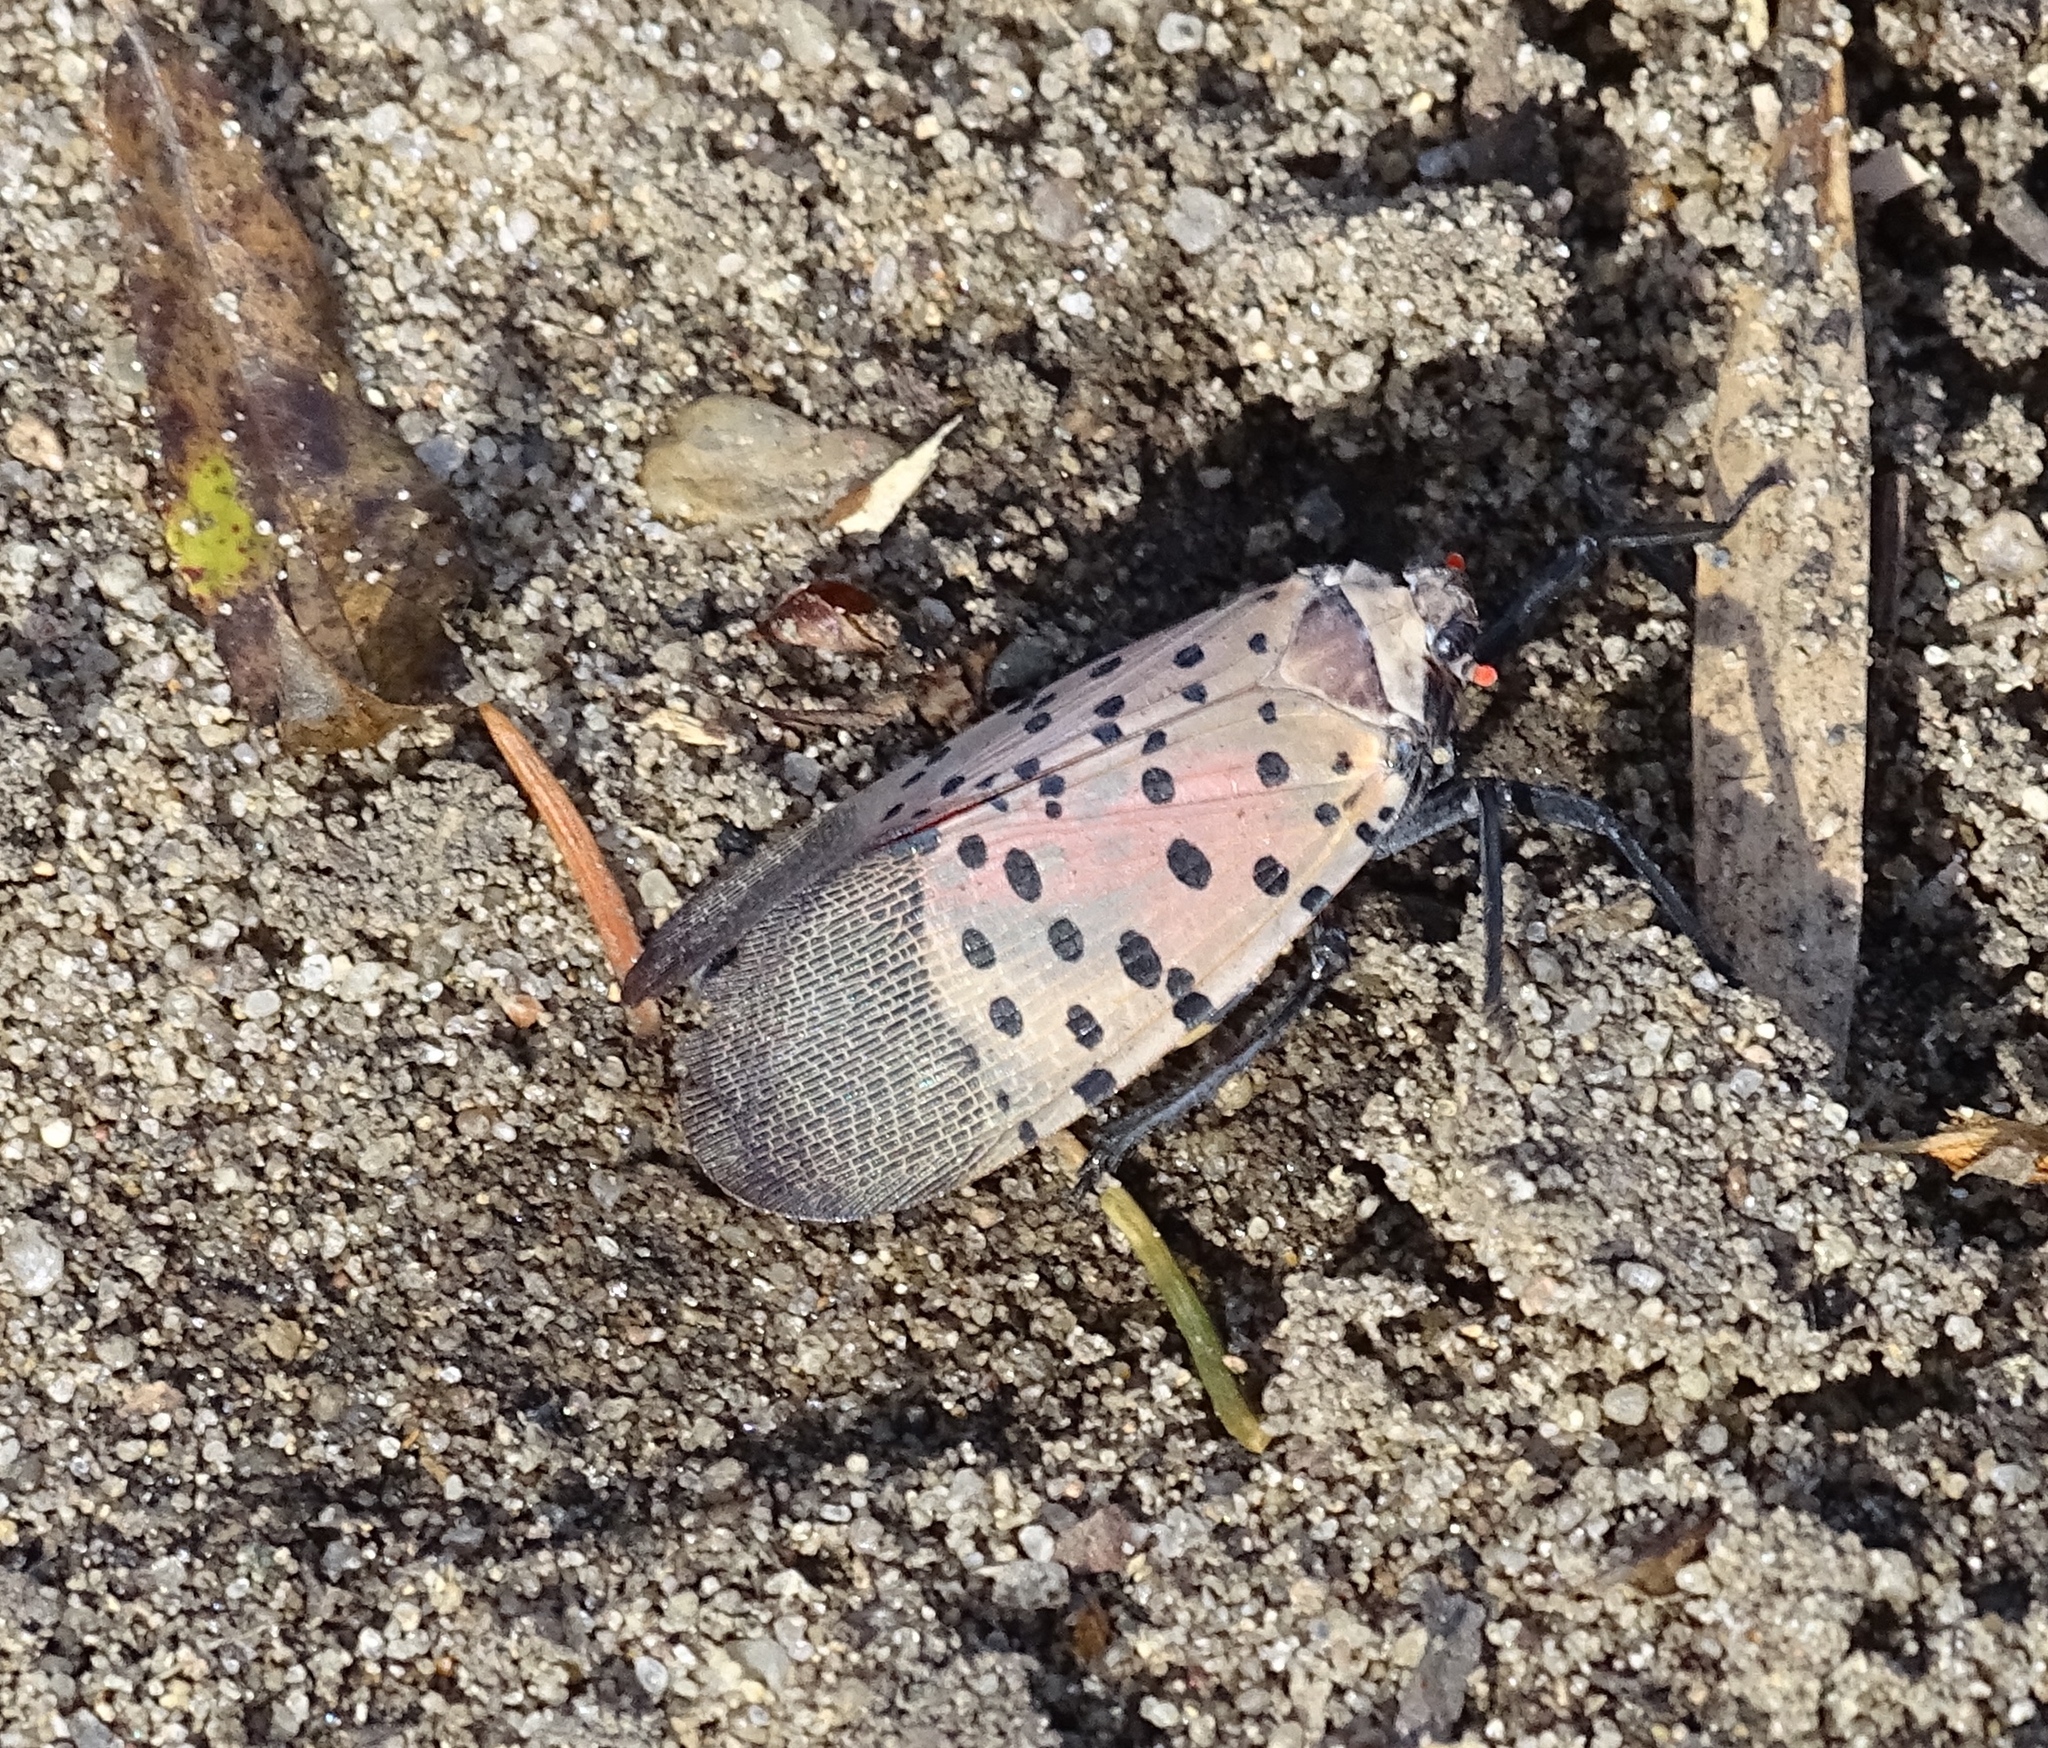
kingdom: Animalia
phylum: Arthropoda
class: Insecta
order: Hemiptera
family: Fulgoridae
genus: Lycorma
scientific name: Lycorma delicatula
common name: Spotted lanternfly
